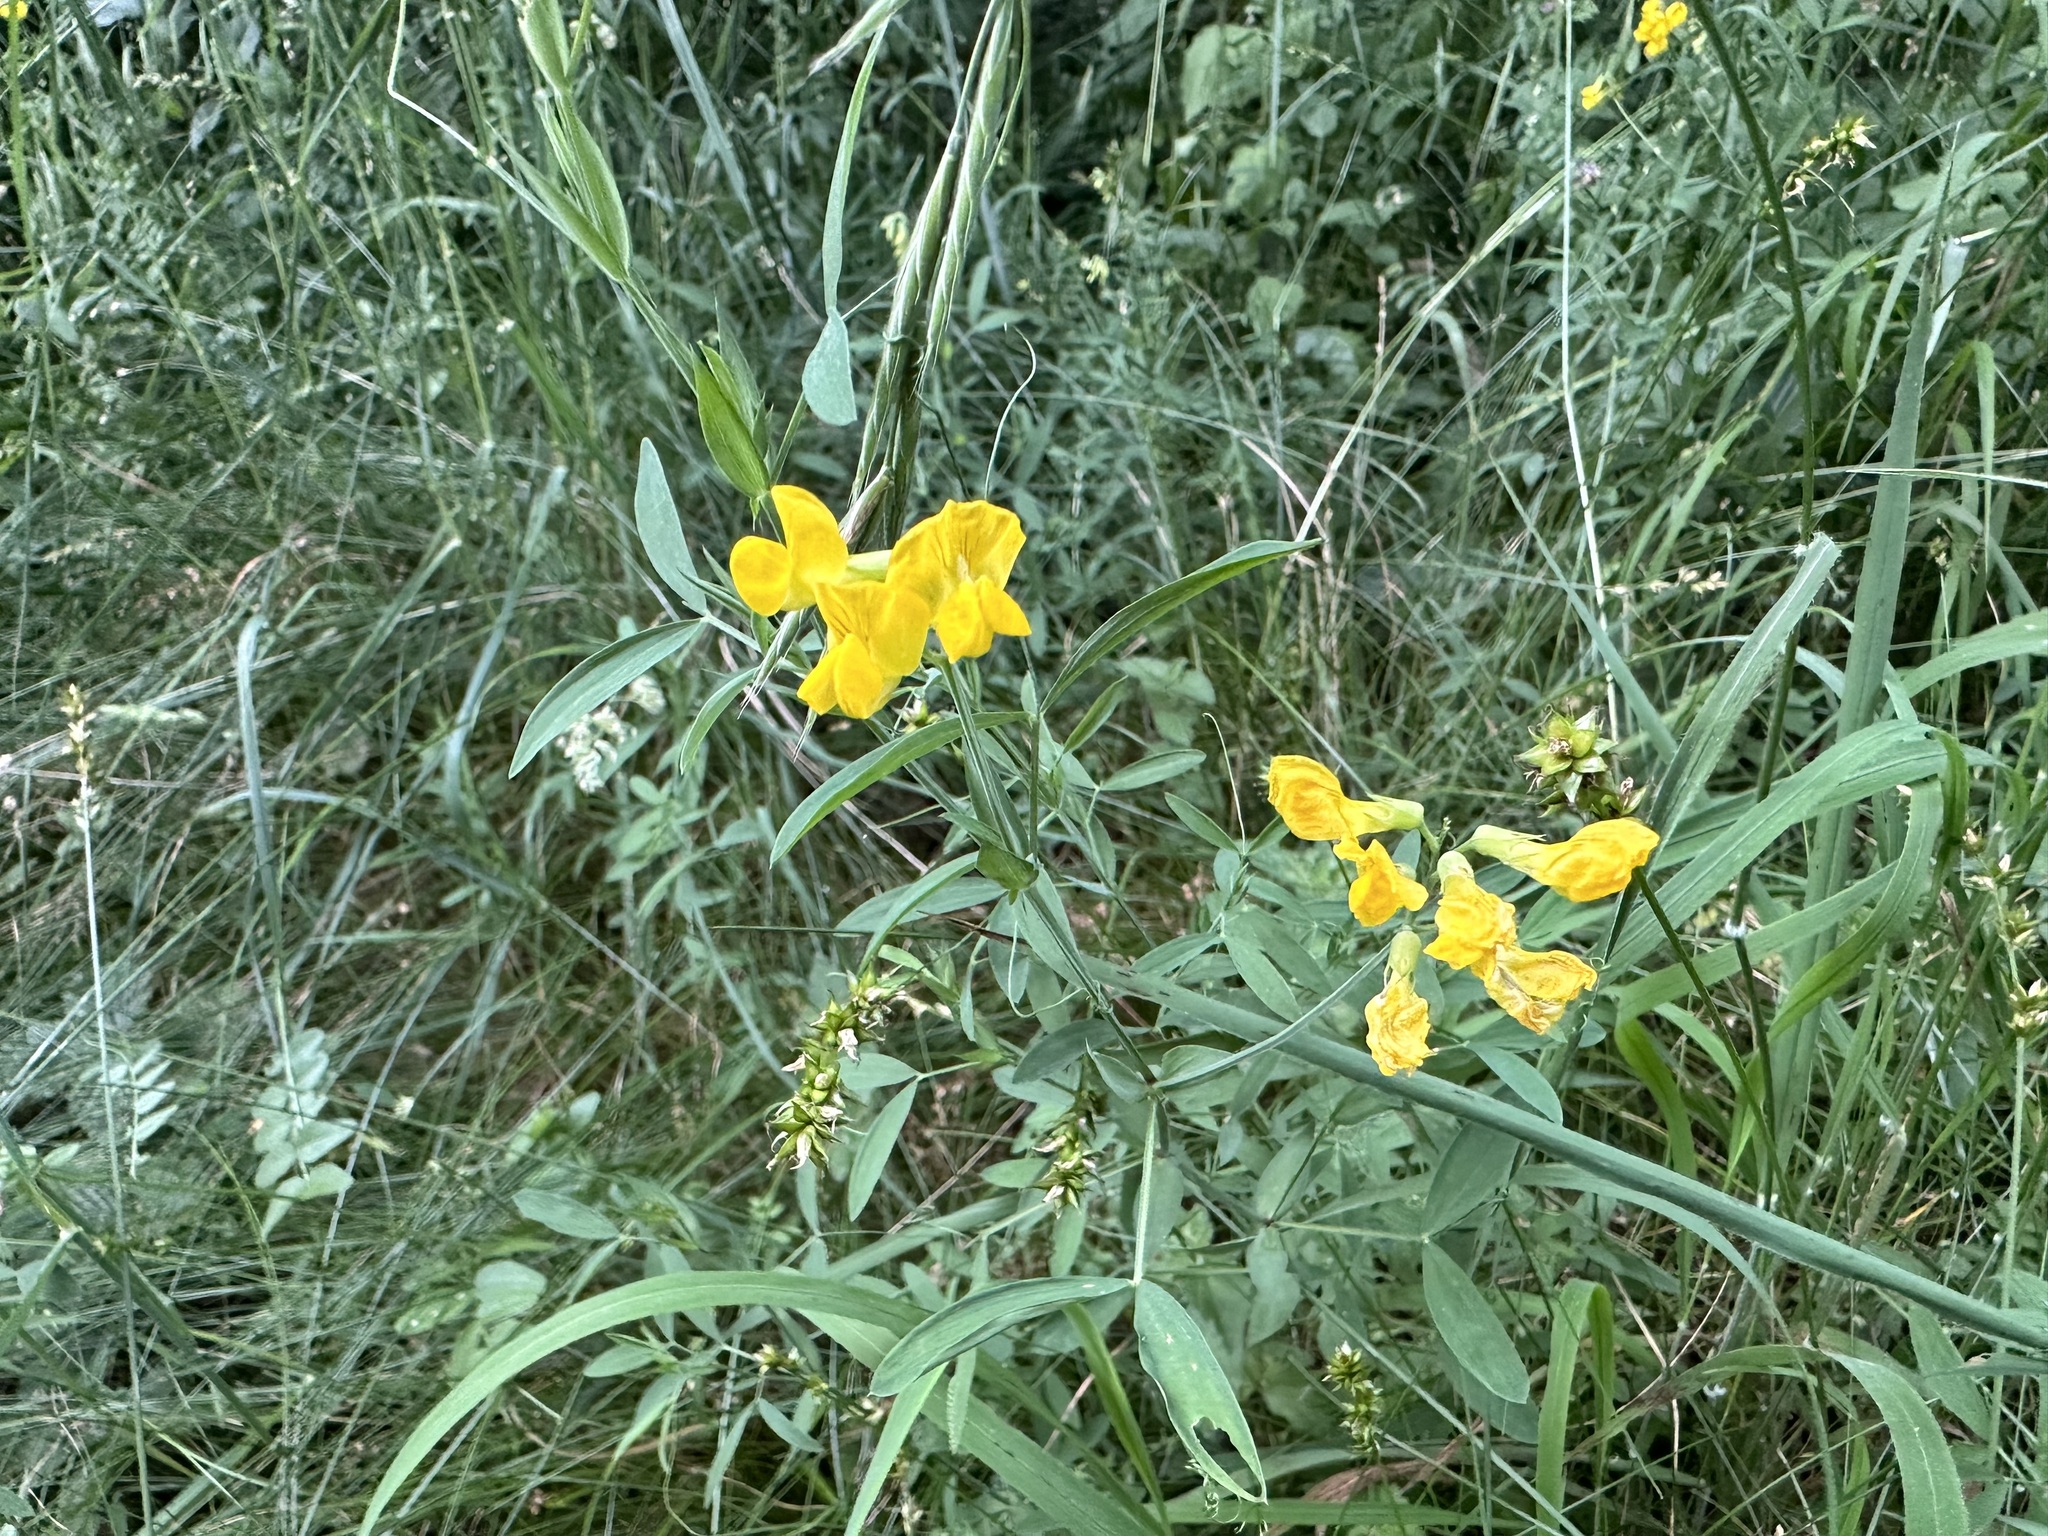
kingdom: Plantae
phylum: Tracheophyta
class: Magnoliopsida
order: Fabales
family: Fabaceae
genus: Lathyrus
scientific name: Lathyrus pratensis
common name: Meadow vetchling
